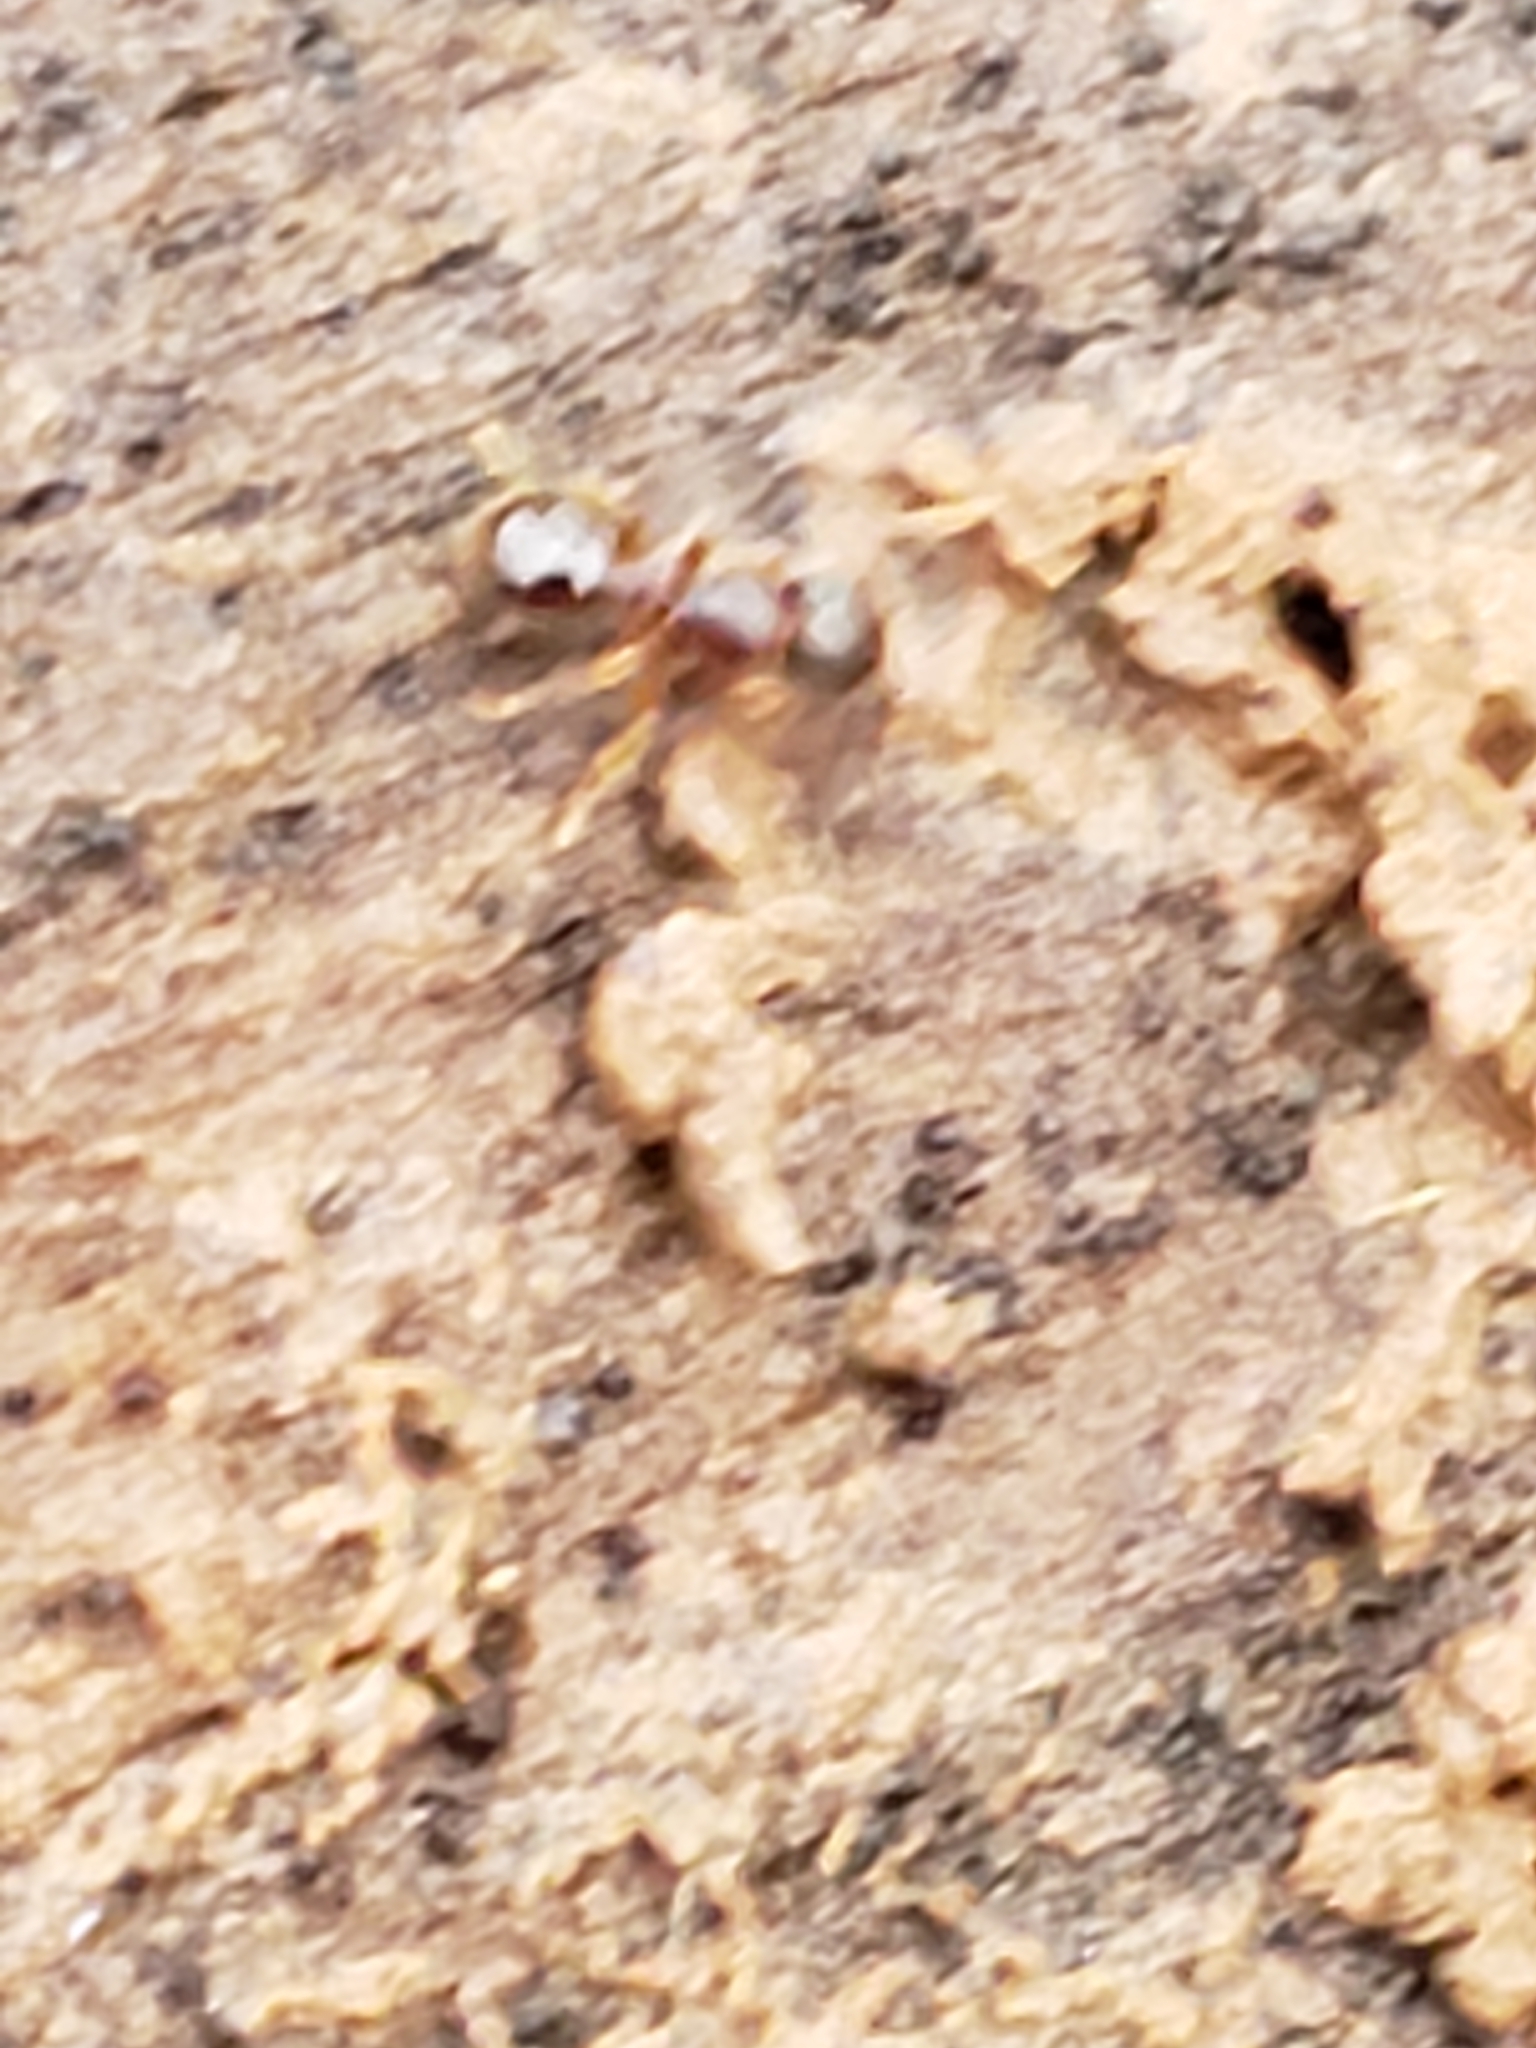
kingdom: Animalia
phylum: Arthropoda
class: Insecta
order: Hymenoptera
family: Formicidae
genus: Myrmecina
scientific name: Myrmecina americana
